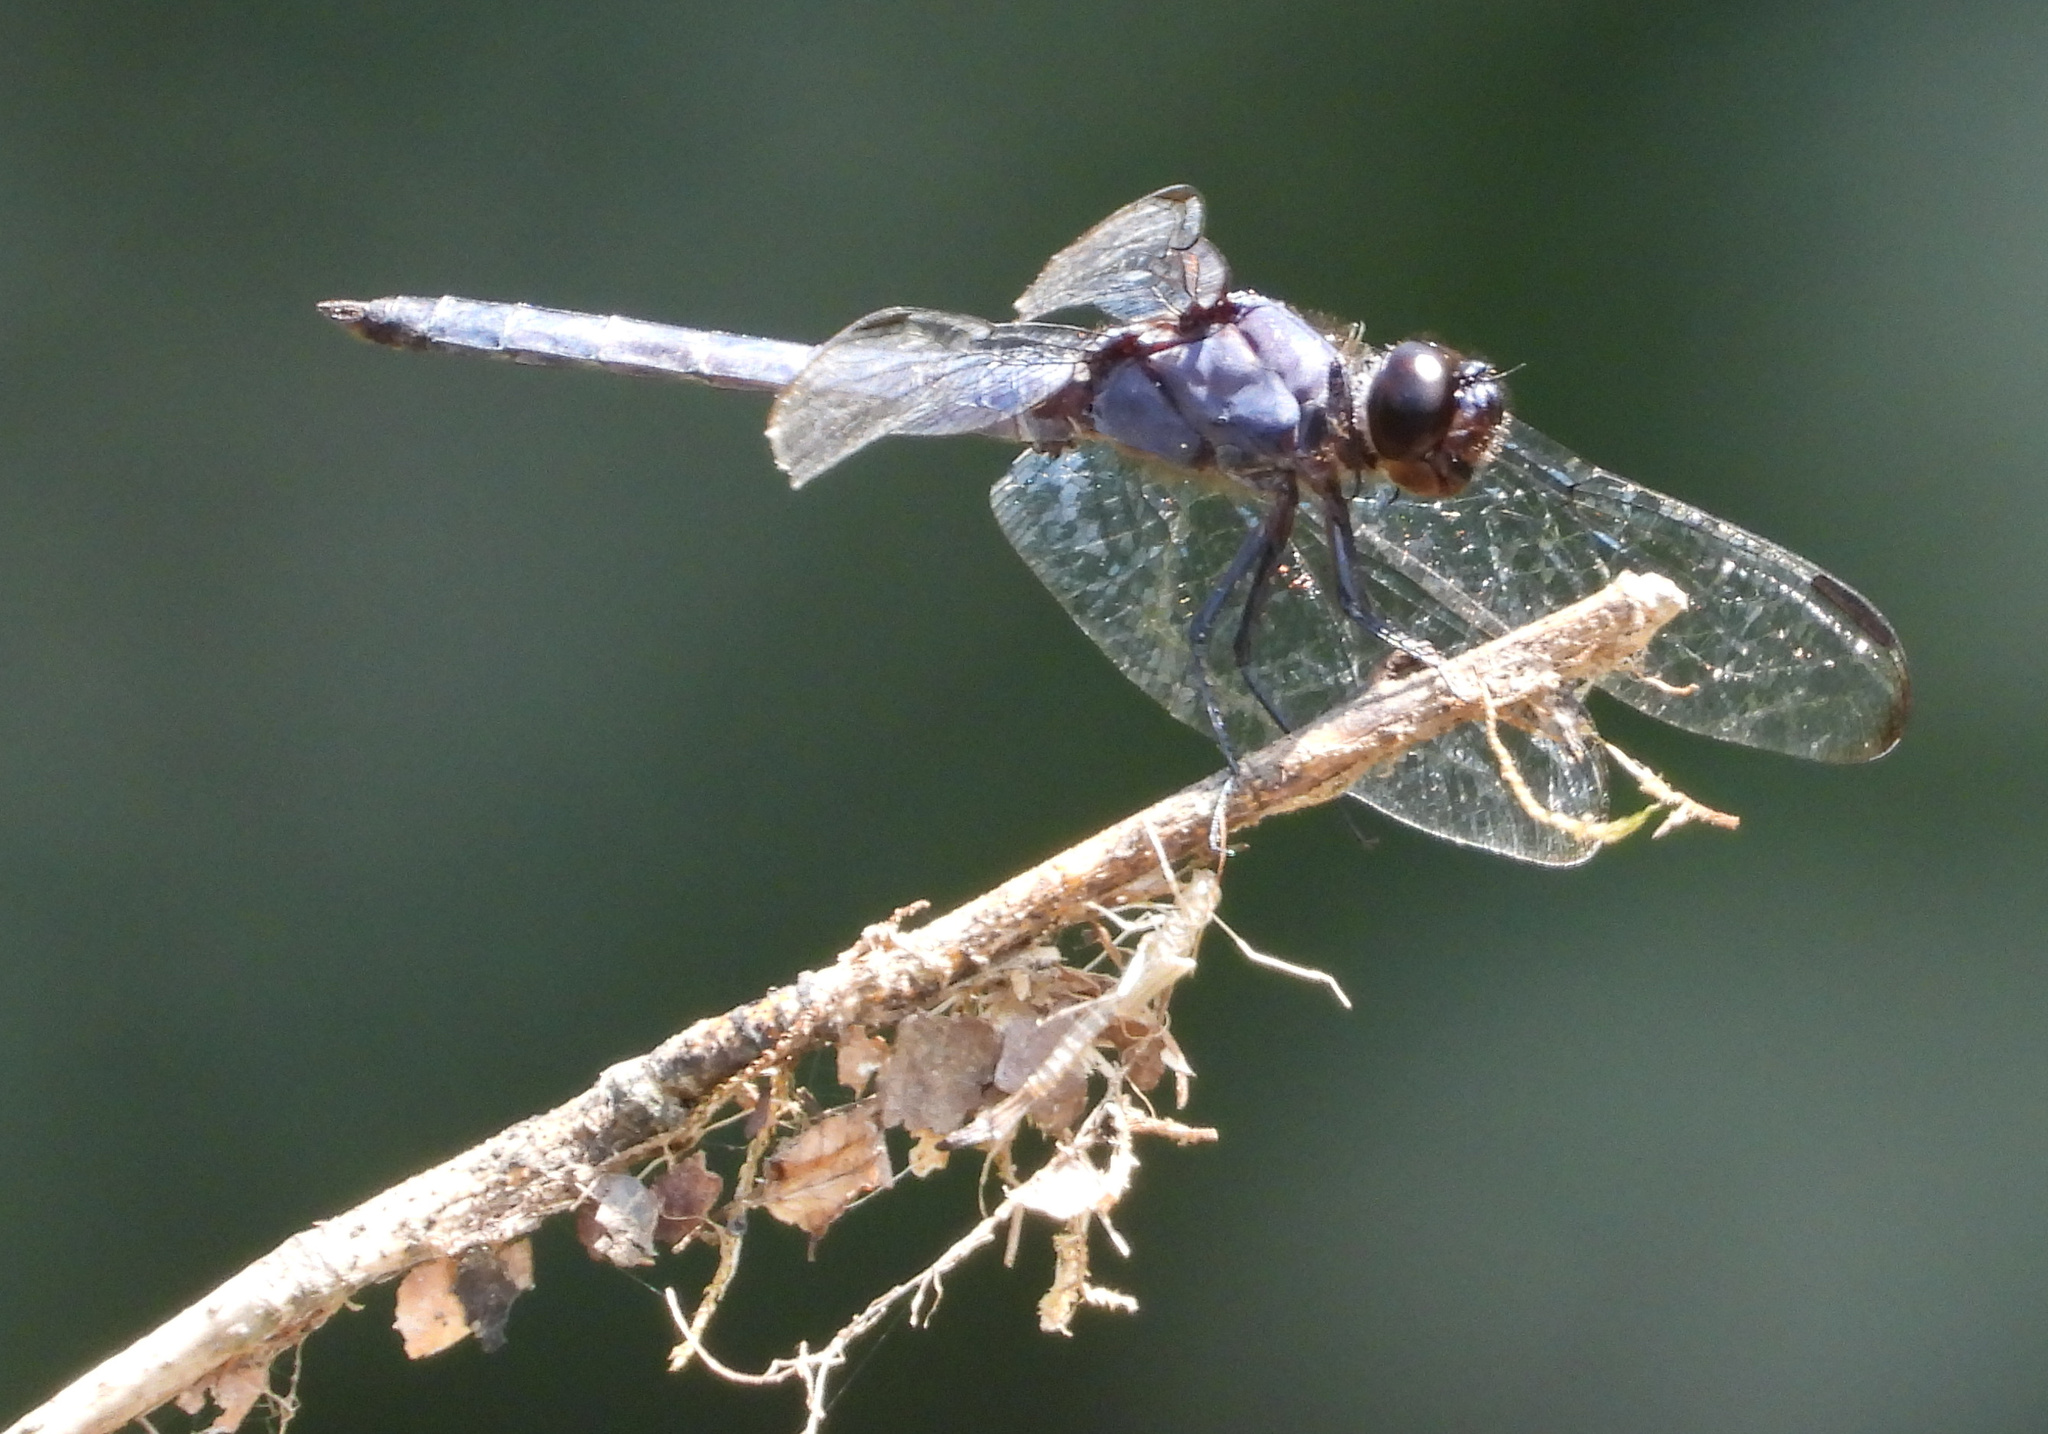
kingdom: Animalia
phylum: Arthropoda
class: Insecta
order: Odonata
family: Libellulidae
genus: Libellula
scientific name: Libellula incesta
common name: Slaty skimmer
